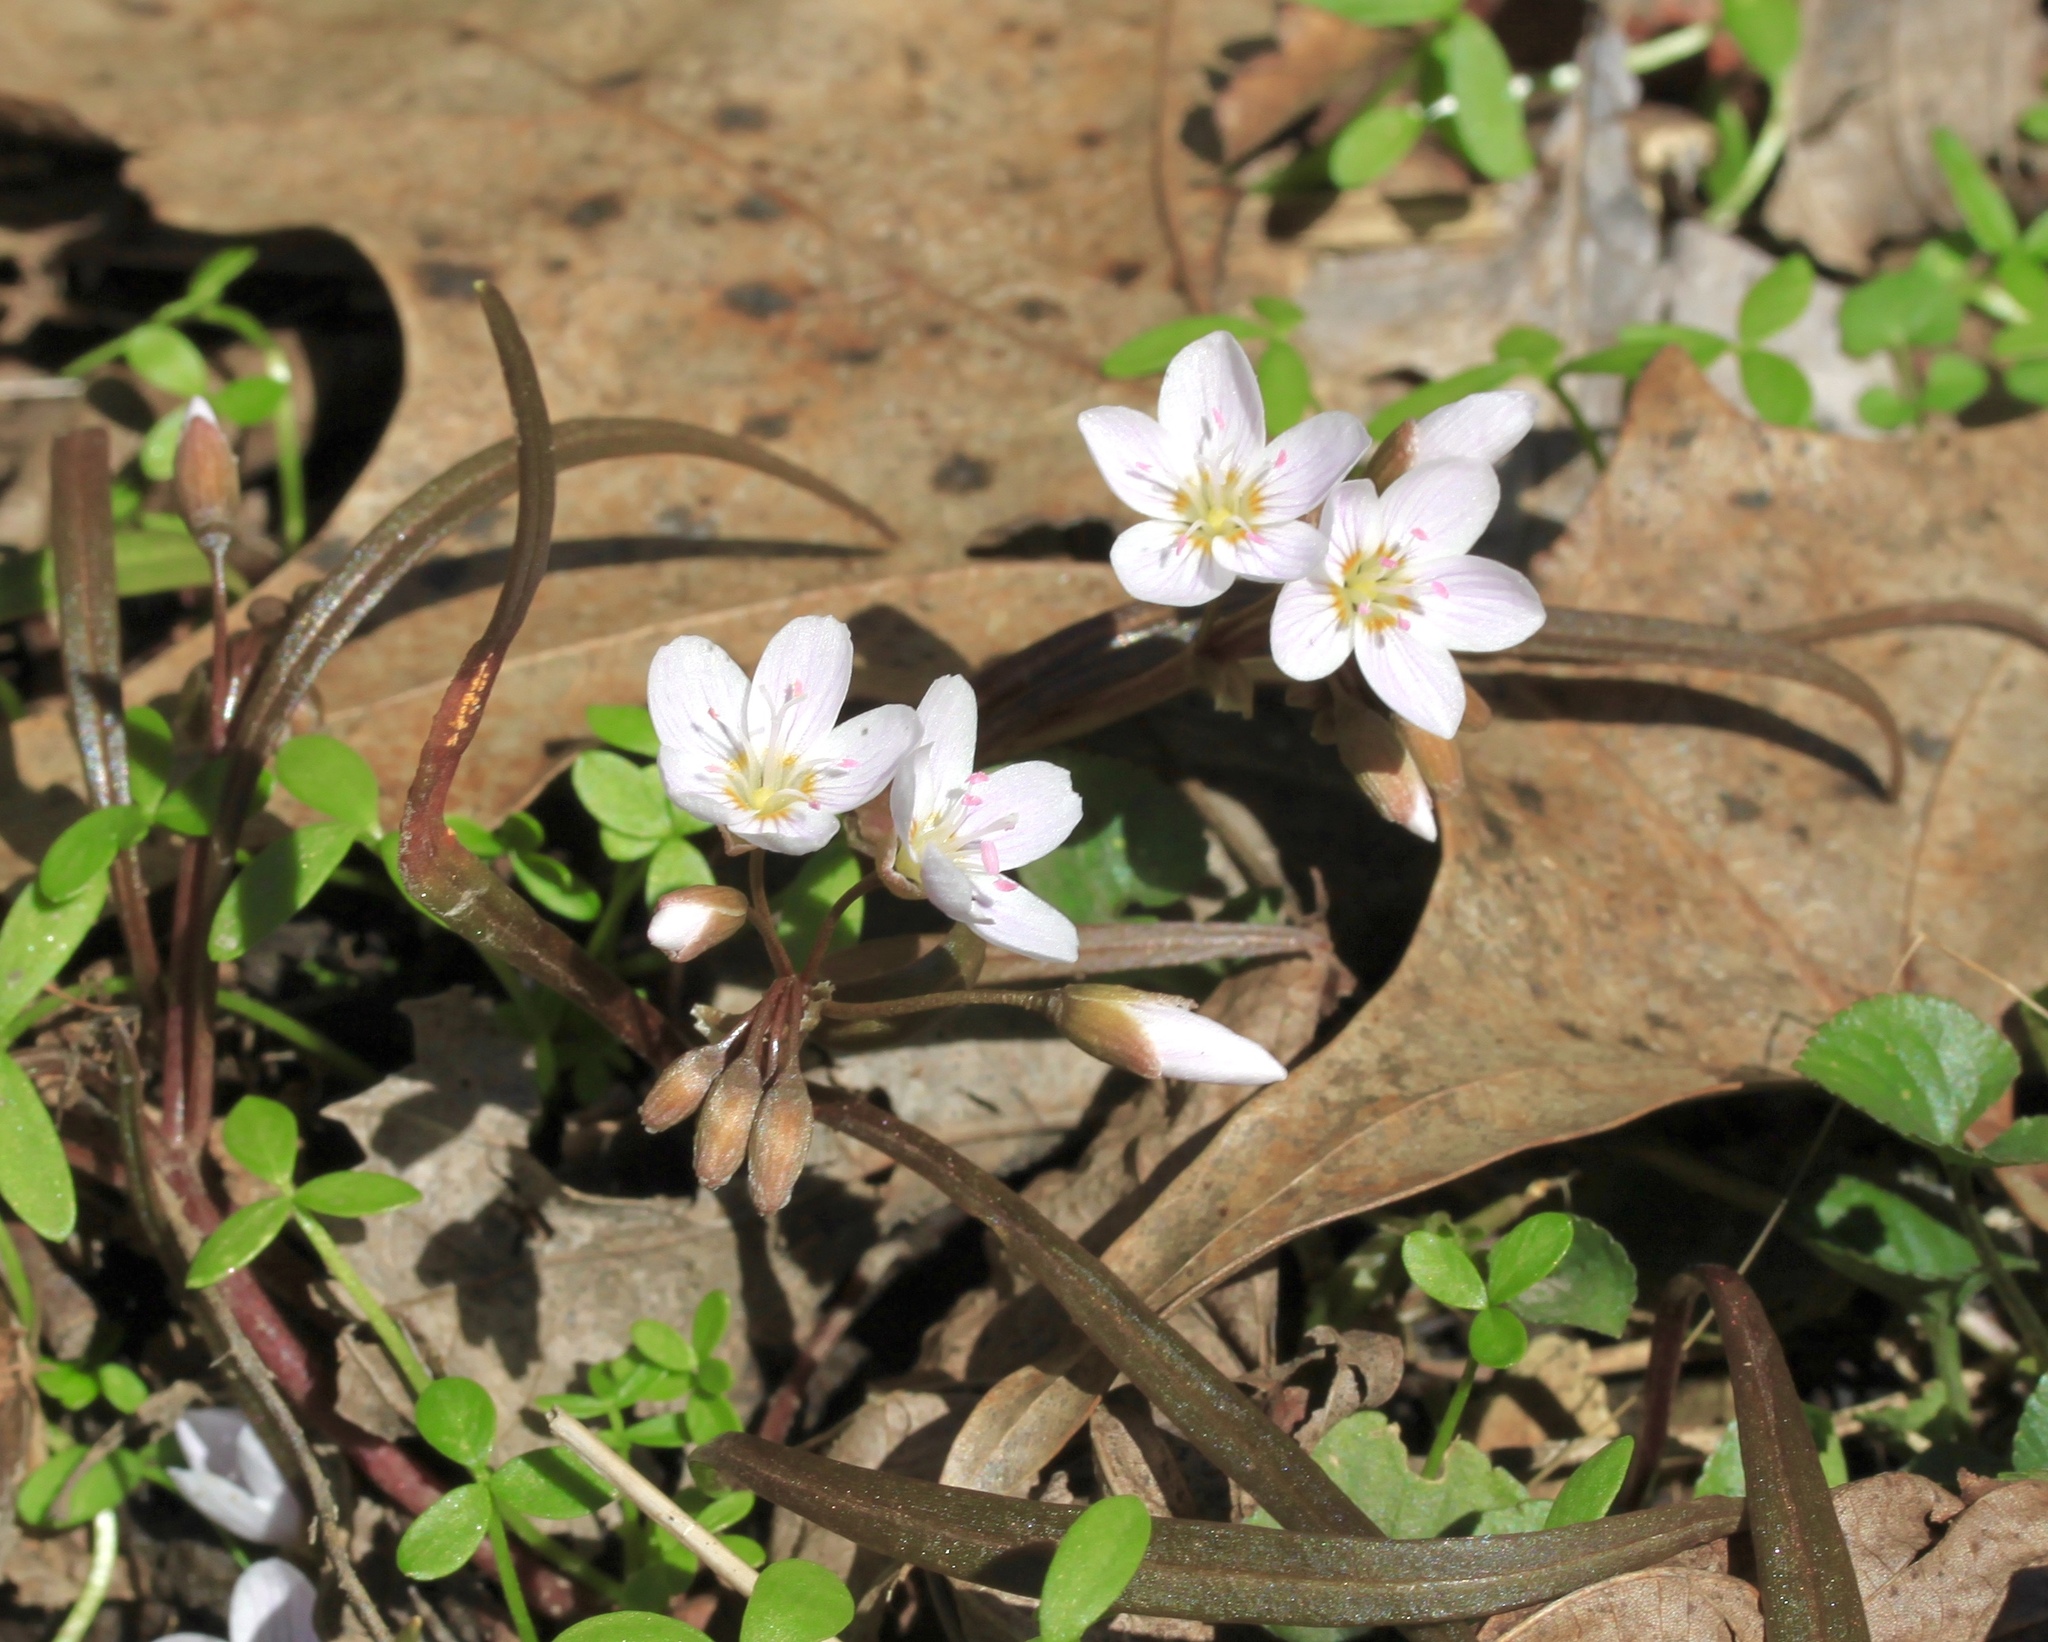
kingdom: Plantae
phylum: Tracheophyta
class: Magnoliopsida
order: Caryophyllales
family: Montiaceae
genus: Claytonia
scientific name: Claytonia virginica
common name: Virginia springbeauty
